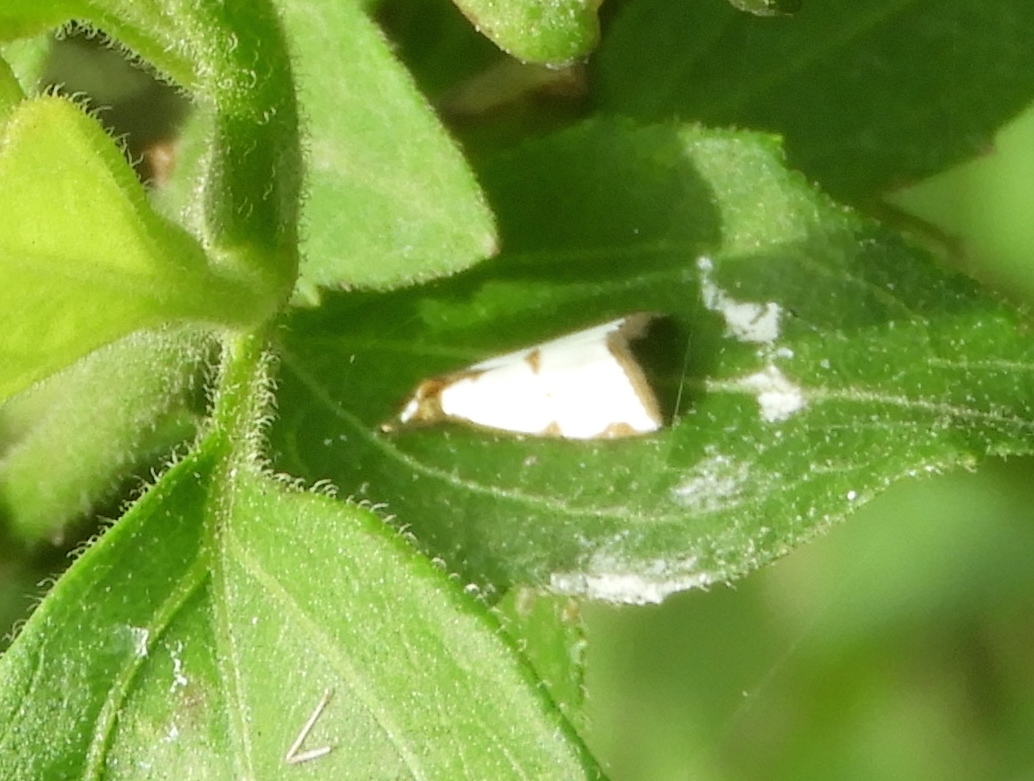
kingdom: Animalia
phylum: Arthropoda
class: Insecta
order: Lepidoptera
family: Crambidae
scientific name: Crambidae
